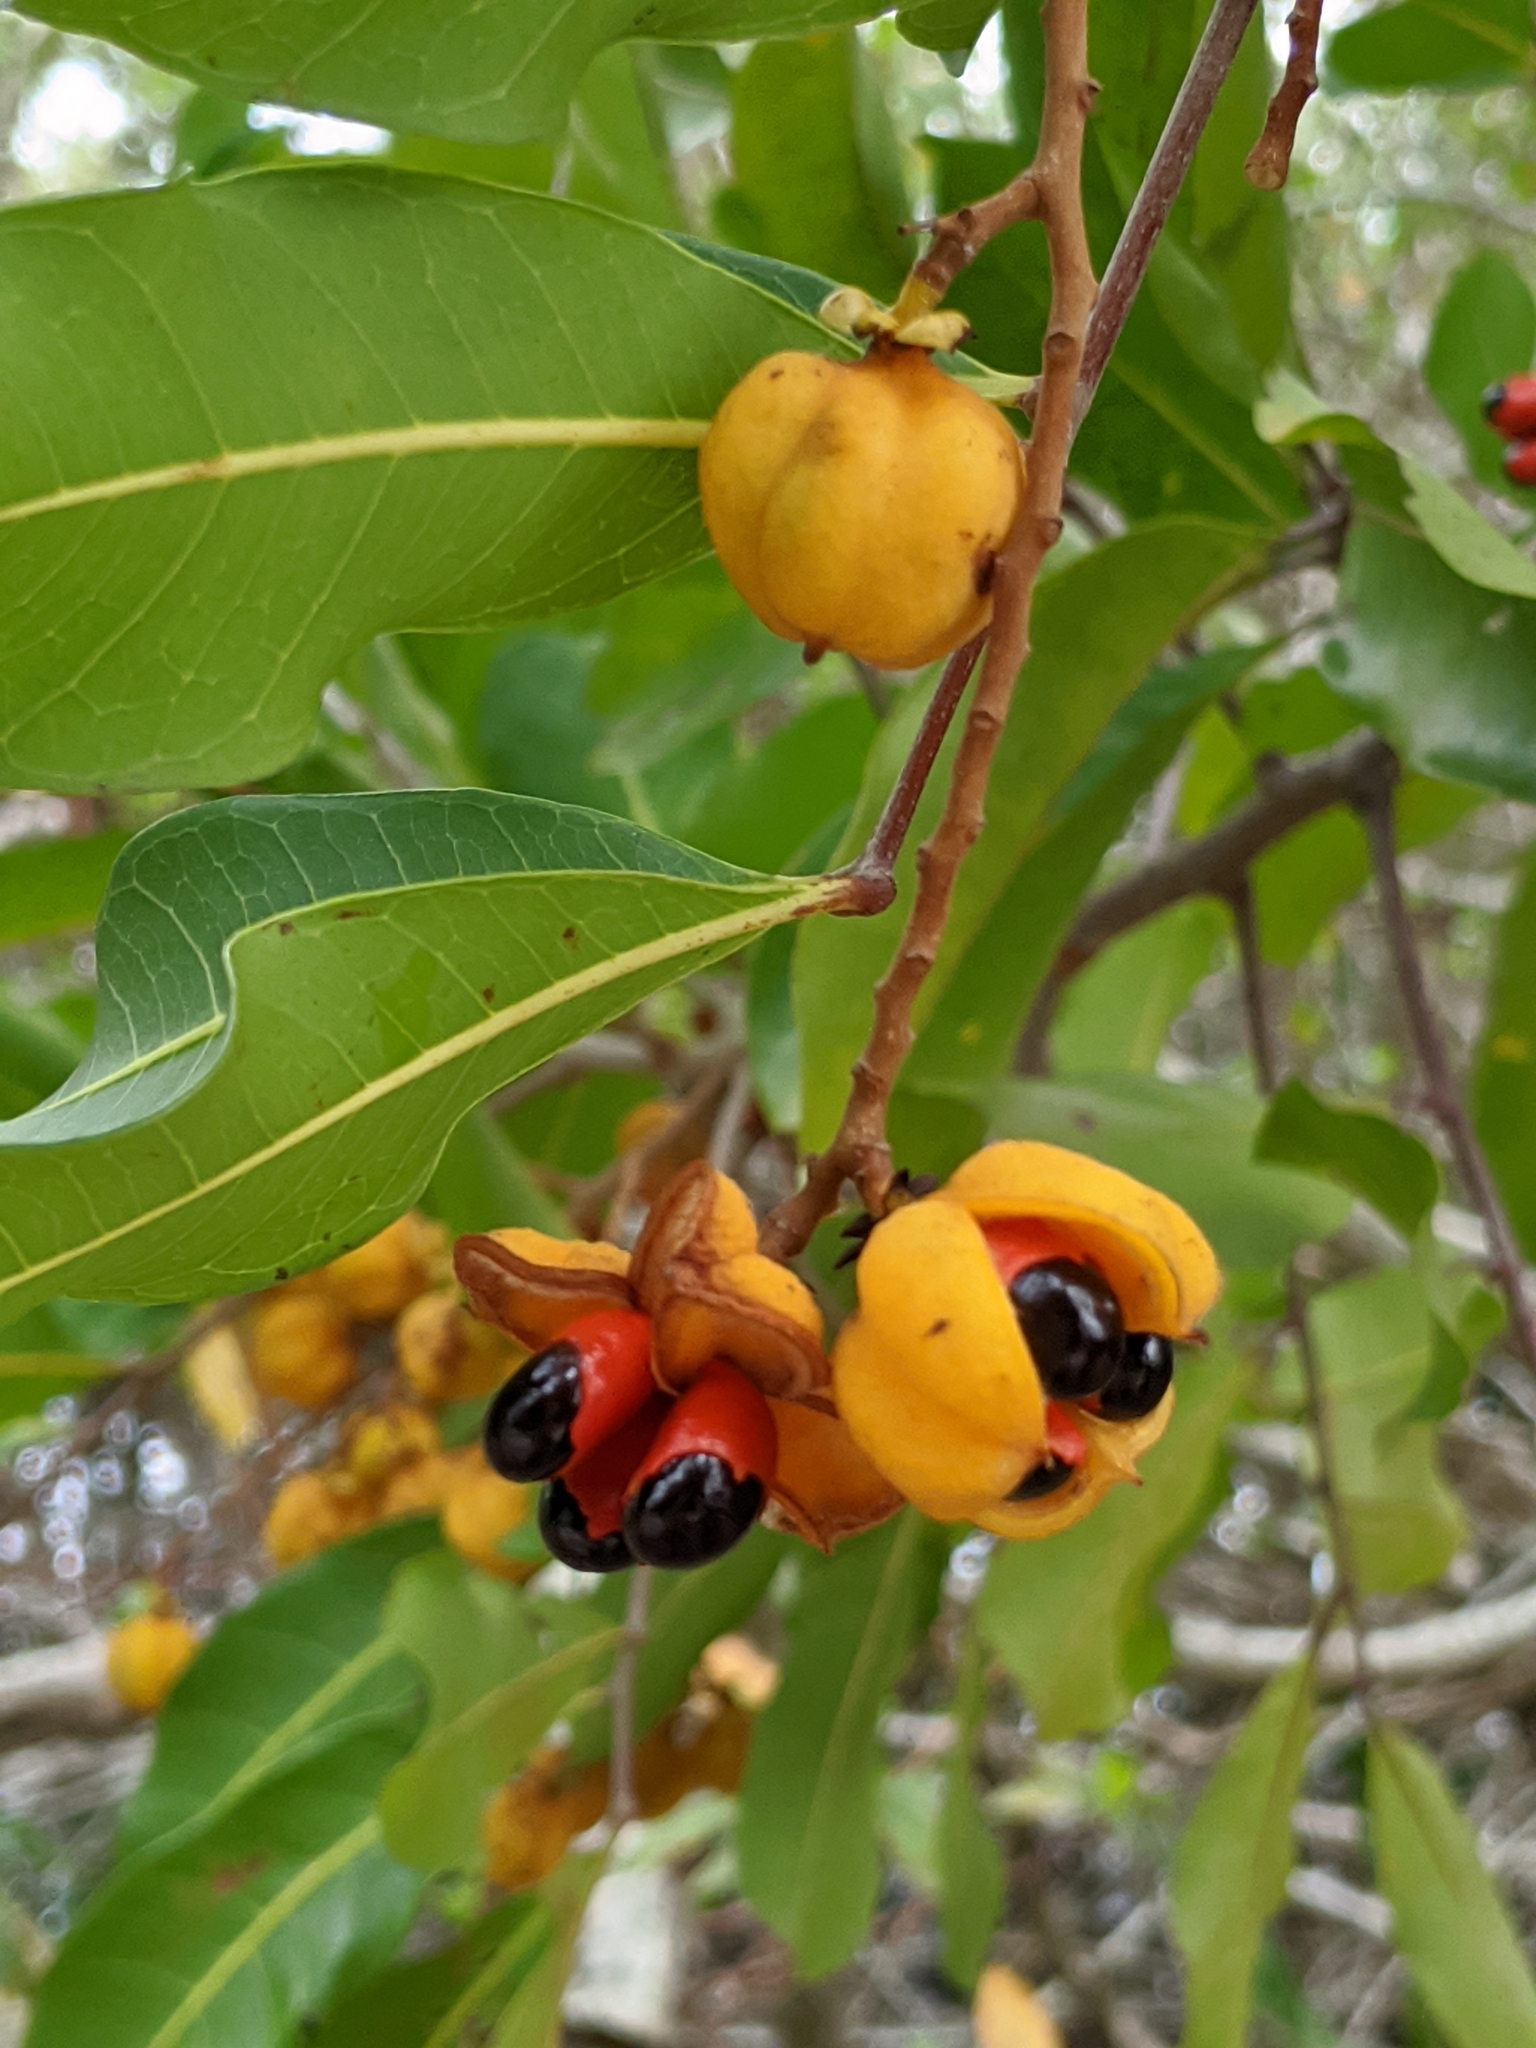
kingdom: Plantae
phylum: Tracheophyta
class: Magnoliopsida
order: Sapindales
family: Sapindaceae
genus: Cupaniopsis
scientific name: Cupaniopsis anacardioides
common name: Carrotwood
